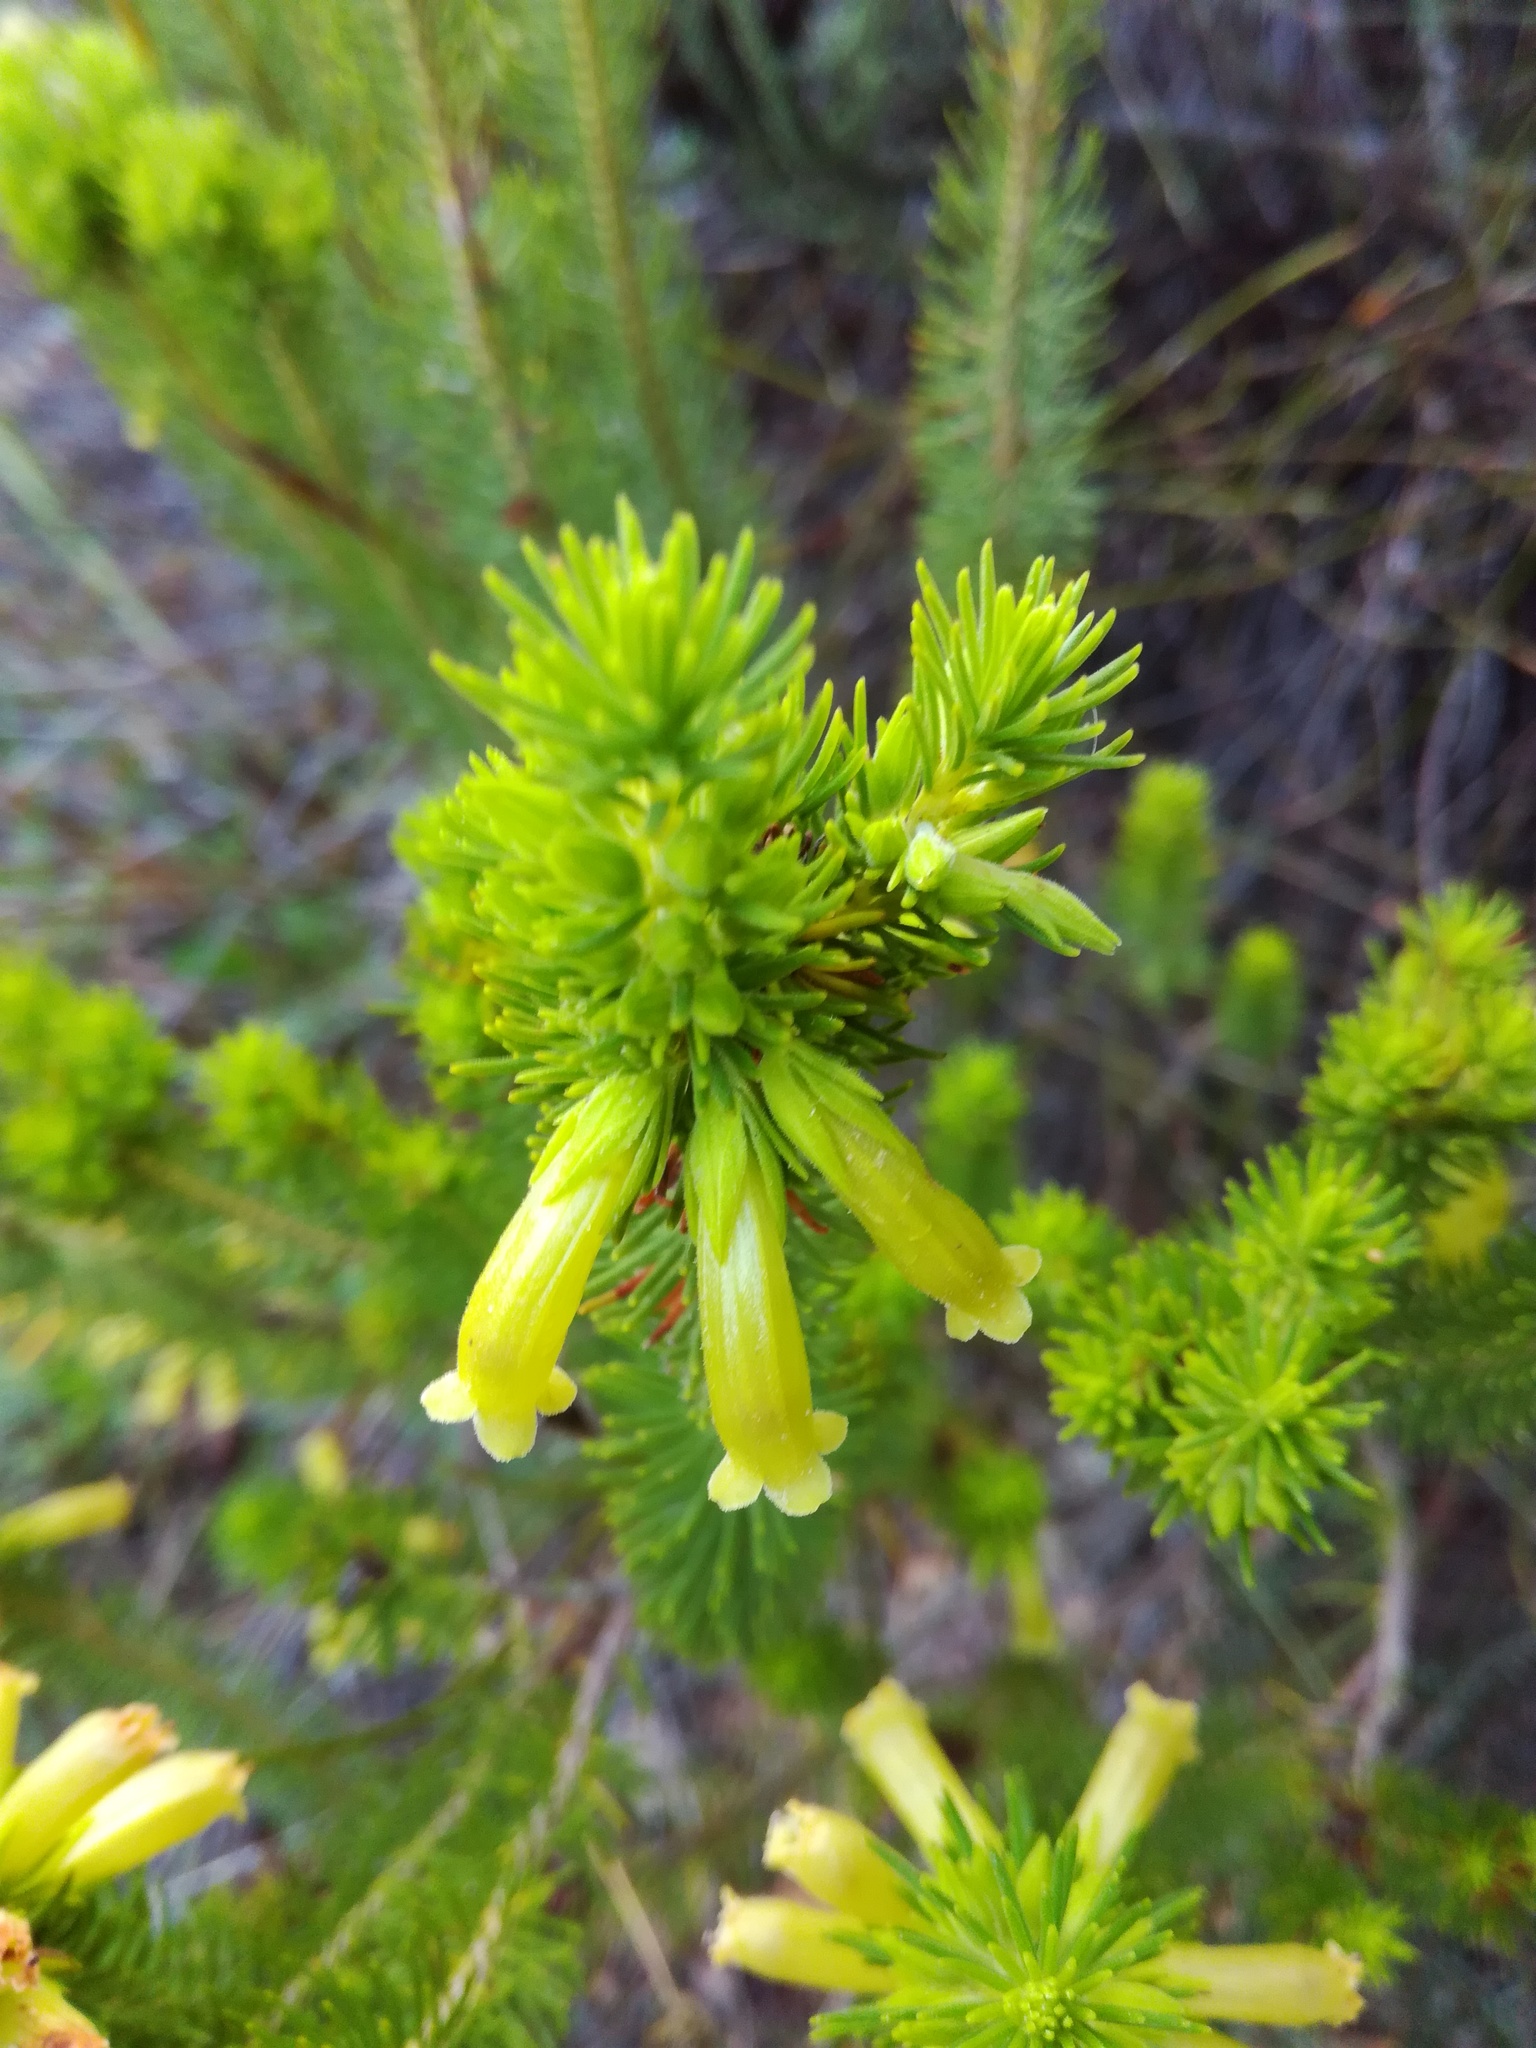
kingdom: Plantae
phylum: Tracheophyta
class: Magnoliopsida
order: Ericales
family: Ericaceae
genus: Erica
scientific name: Erica viscaria
